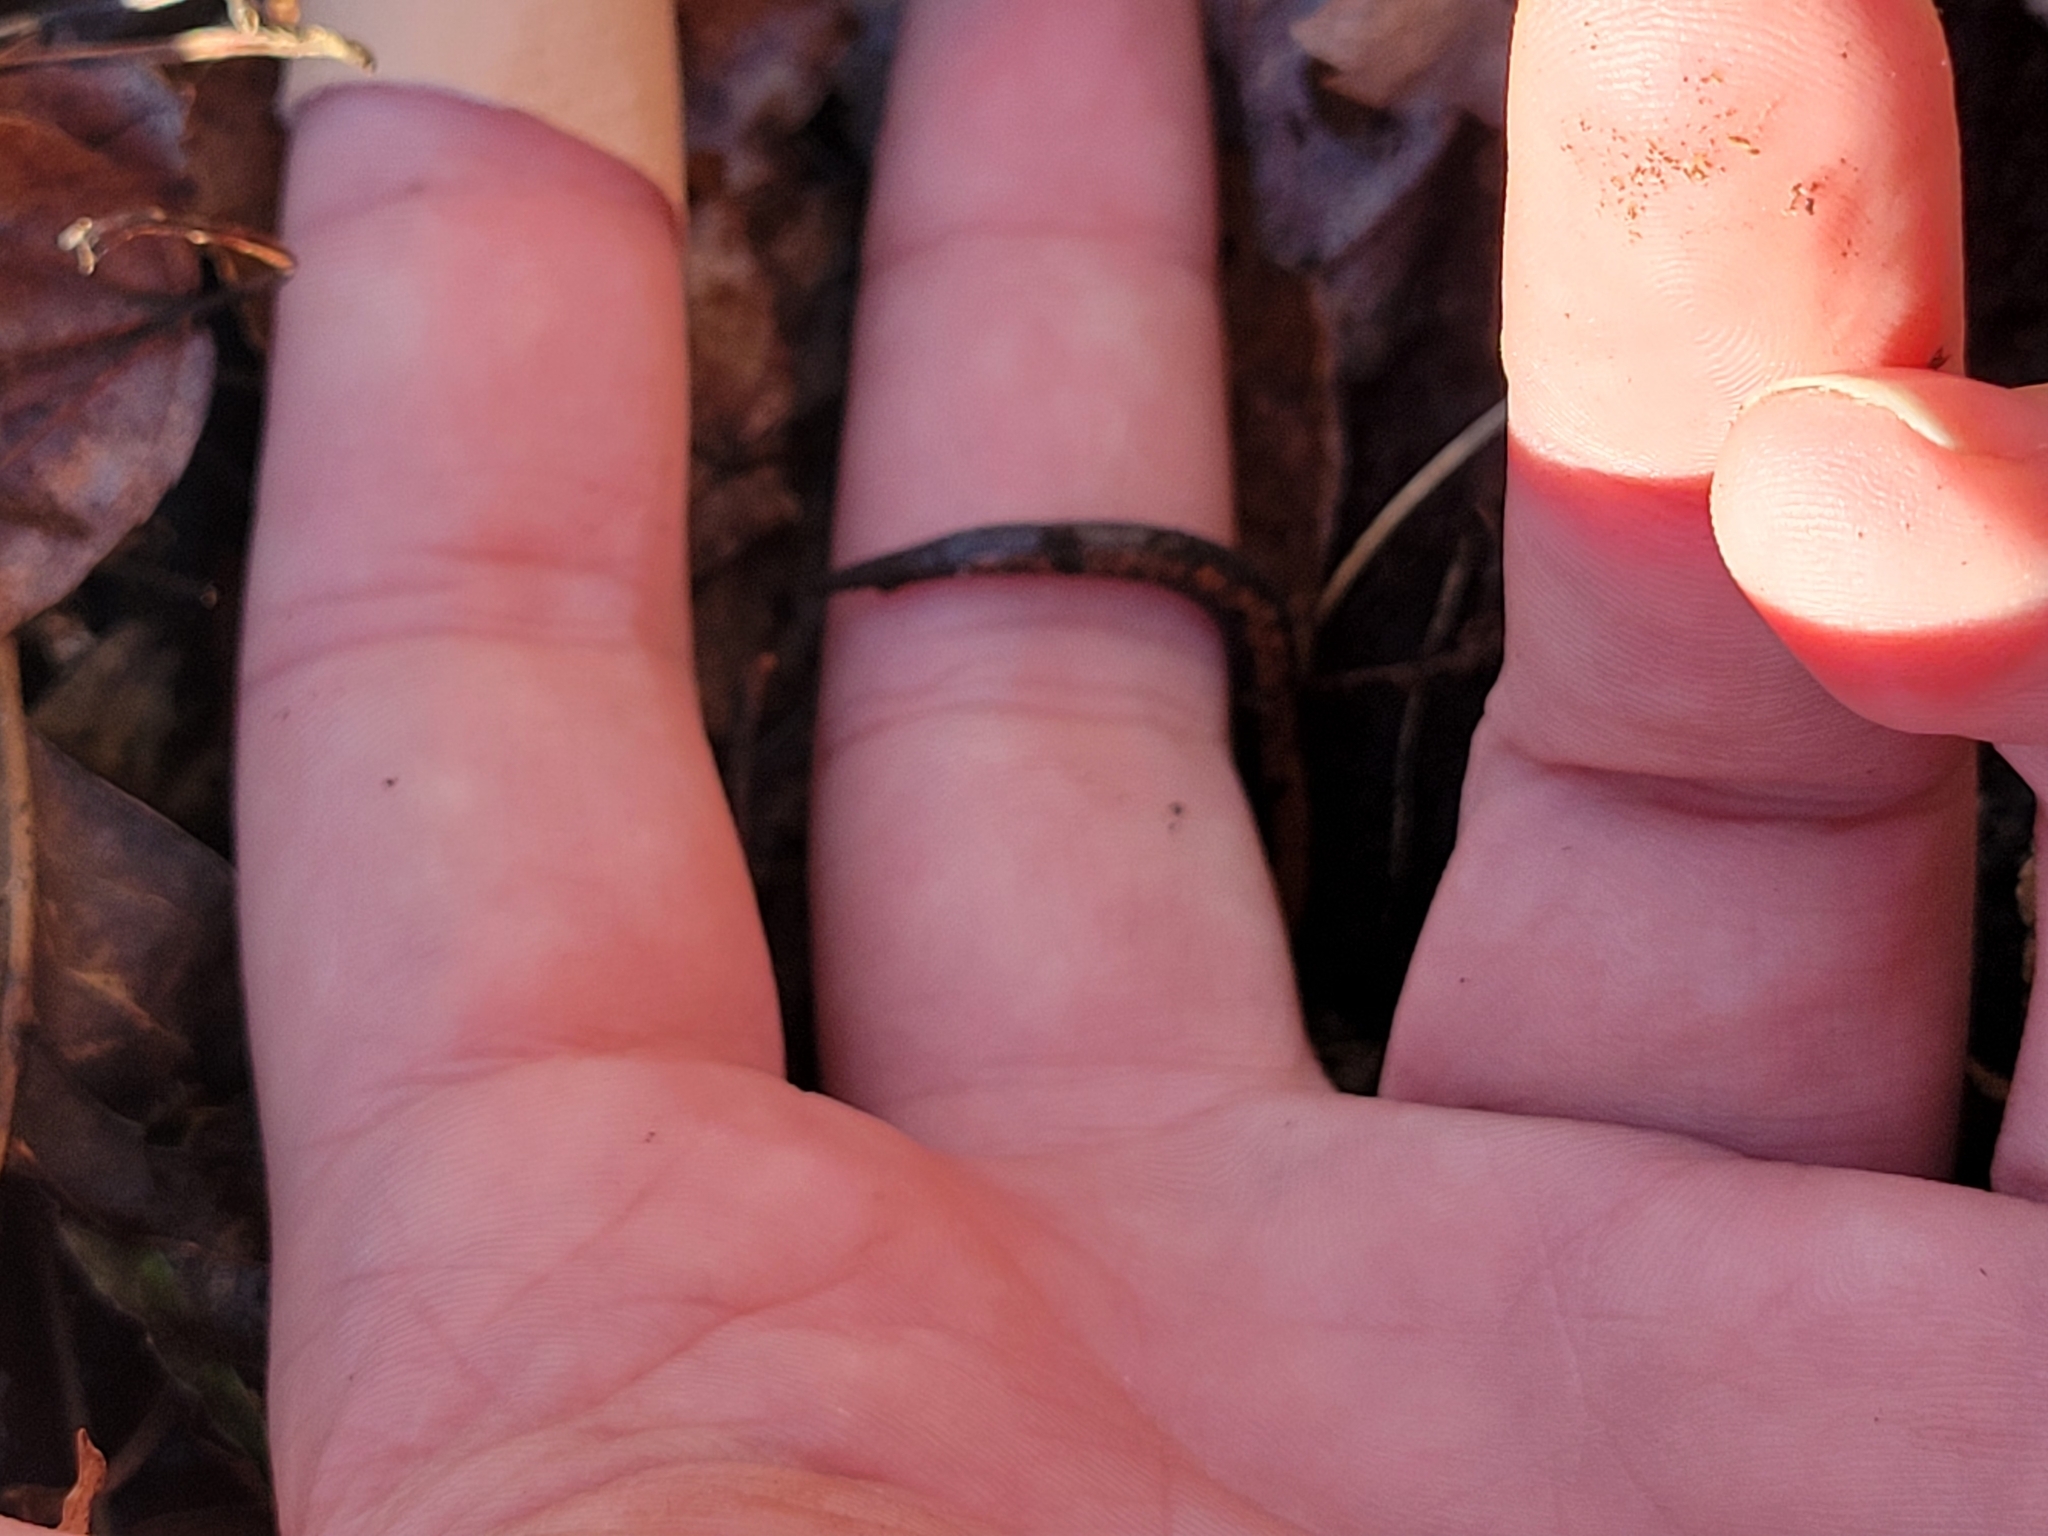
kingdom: Animalia
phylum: Chordata
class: Amphibia
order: Caudata
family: Plethodontidae
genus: Plethodon
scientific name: Plethodon cinereus
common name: Redback salamander
